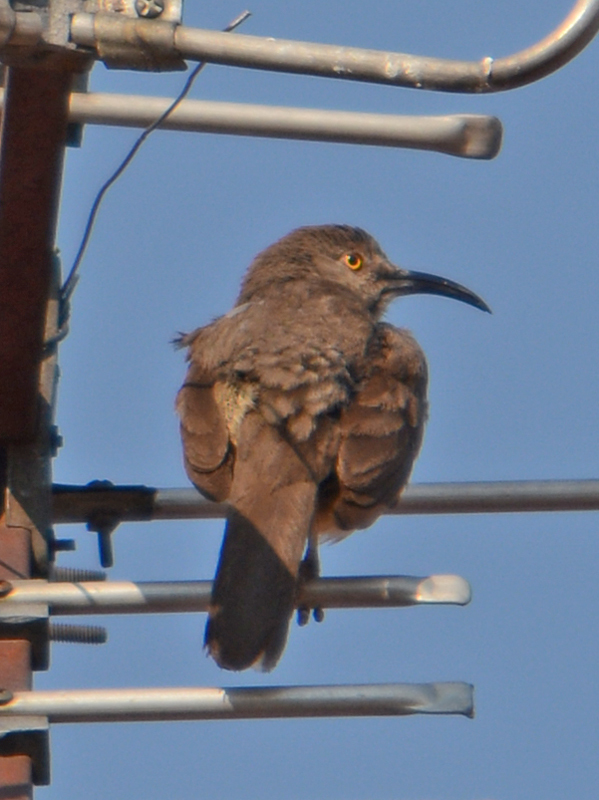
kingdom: Animalia
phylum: Chordata
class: Aves
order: Passeriformes
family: Mimidae
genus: Toxostoma
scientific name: Toxostoma curvirostre
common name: Curve-billed thrasher
